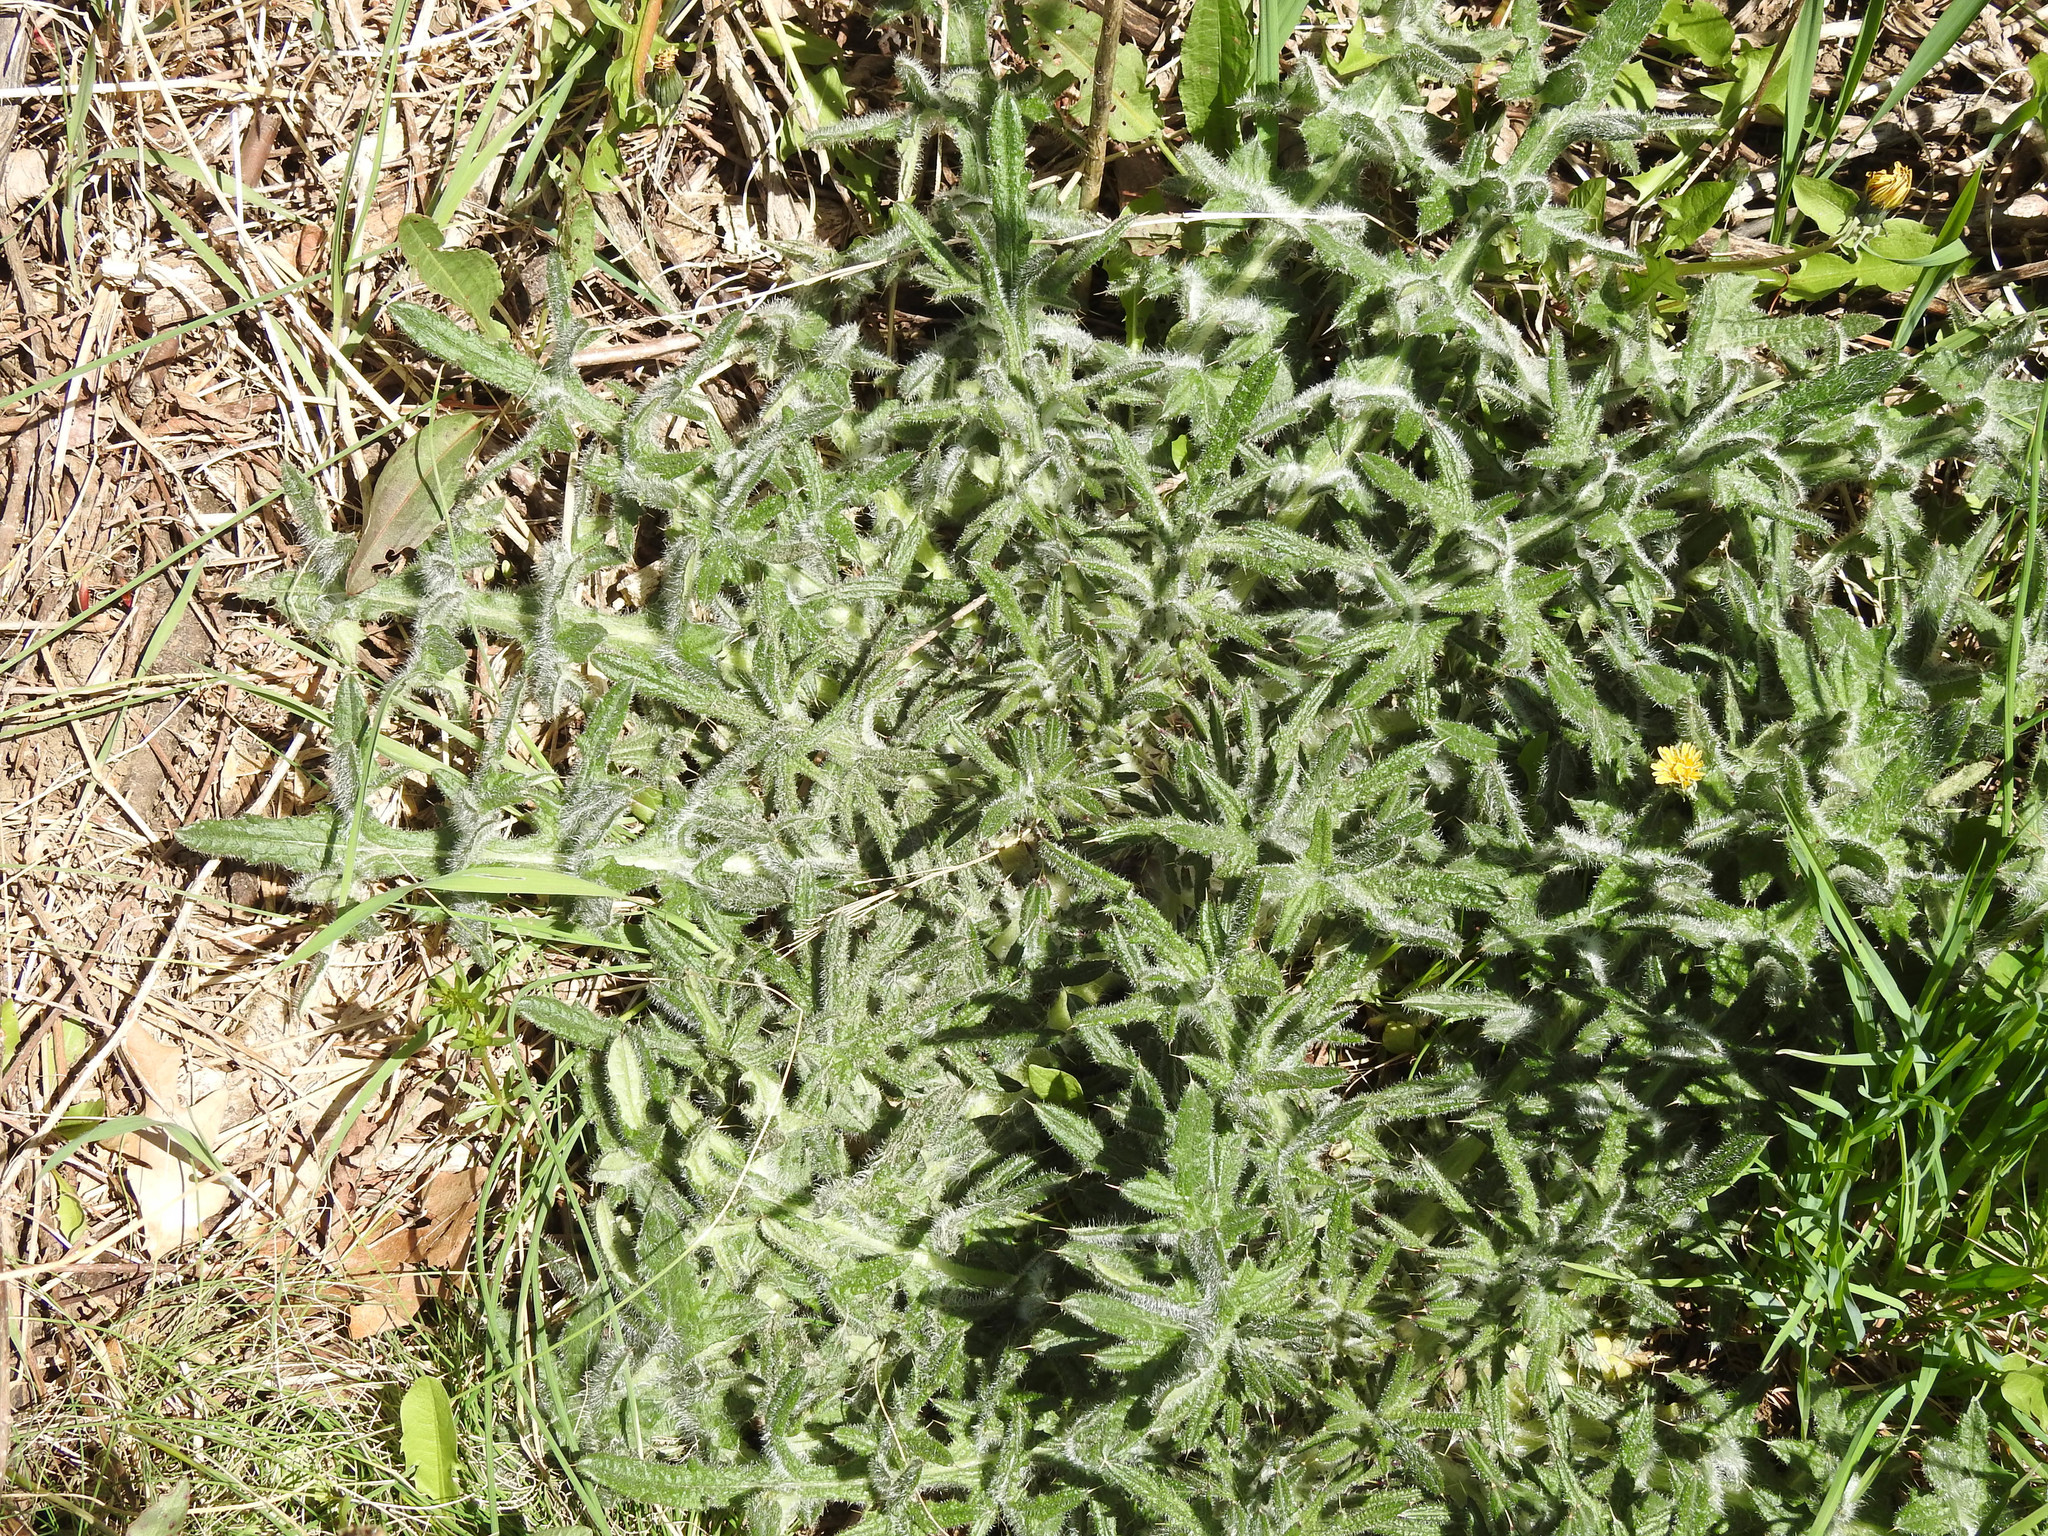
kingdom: Plantae
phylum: Tracheophyta
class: Magnoliopsida
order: Asterales
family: Asteraceae
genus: Cirsium
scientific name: Cirsium vulgare
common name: Bull thistle
